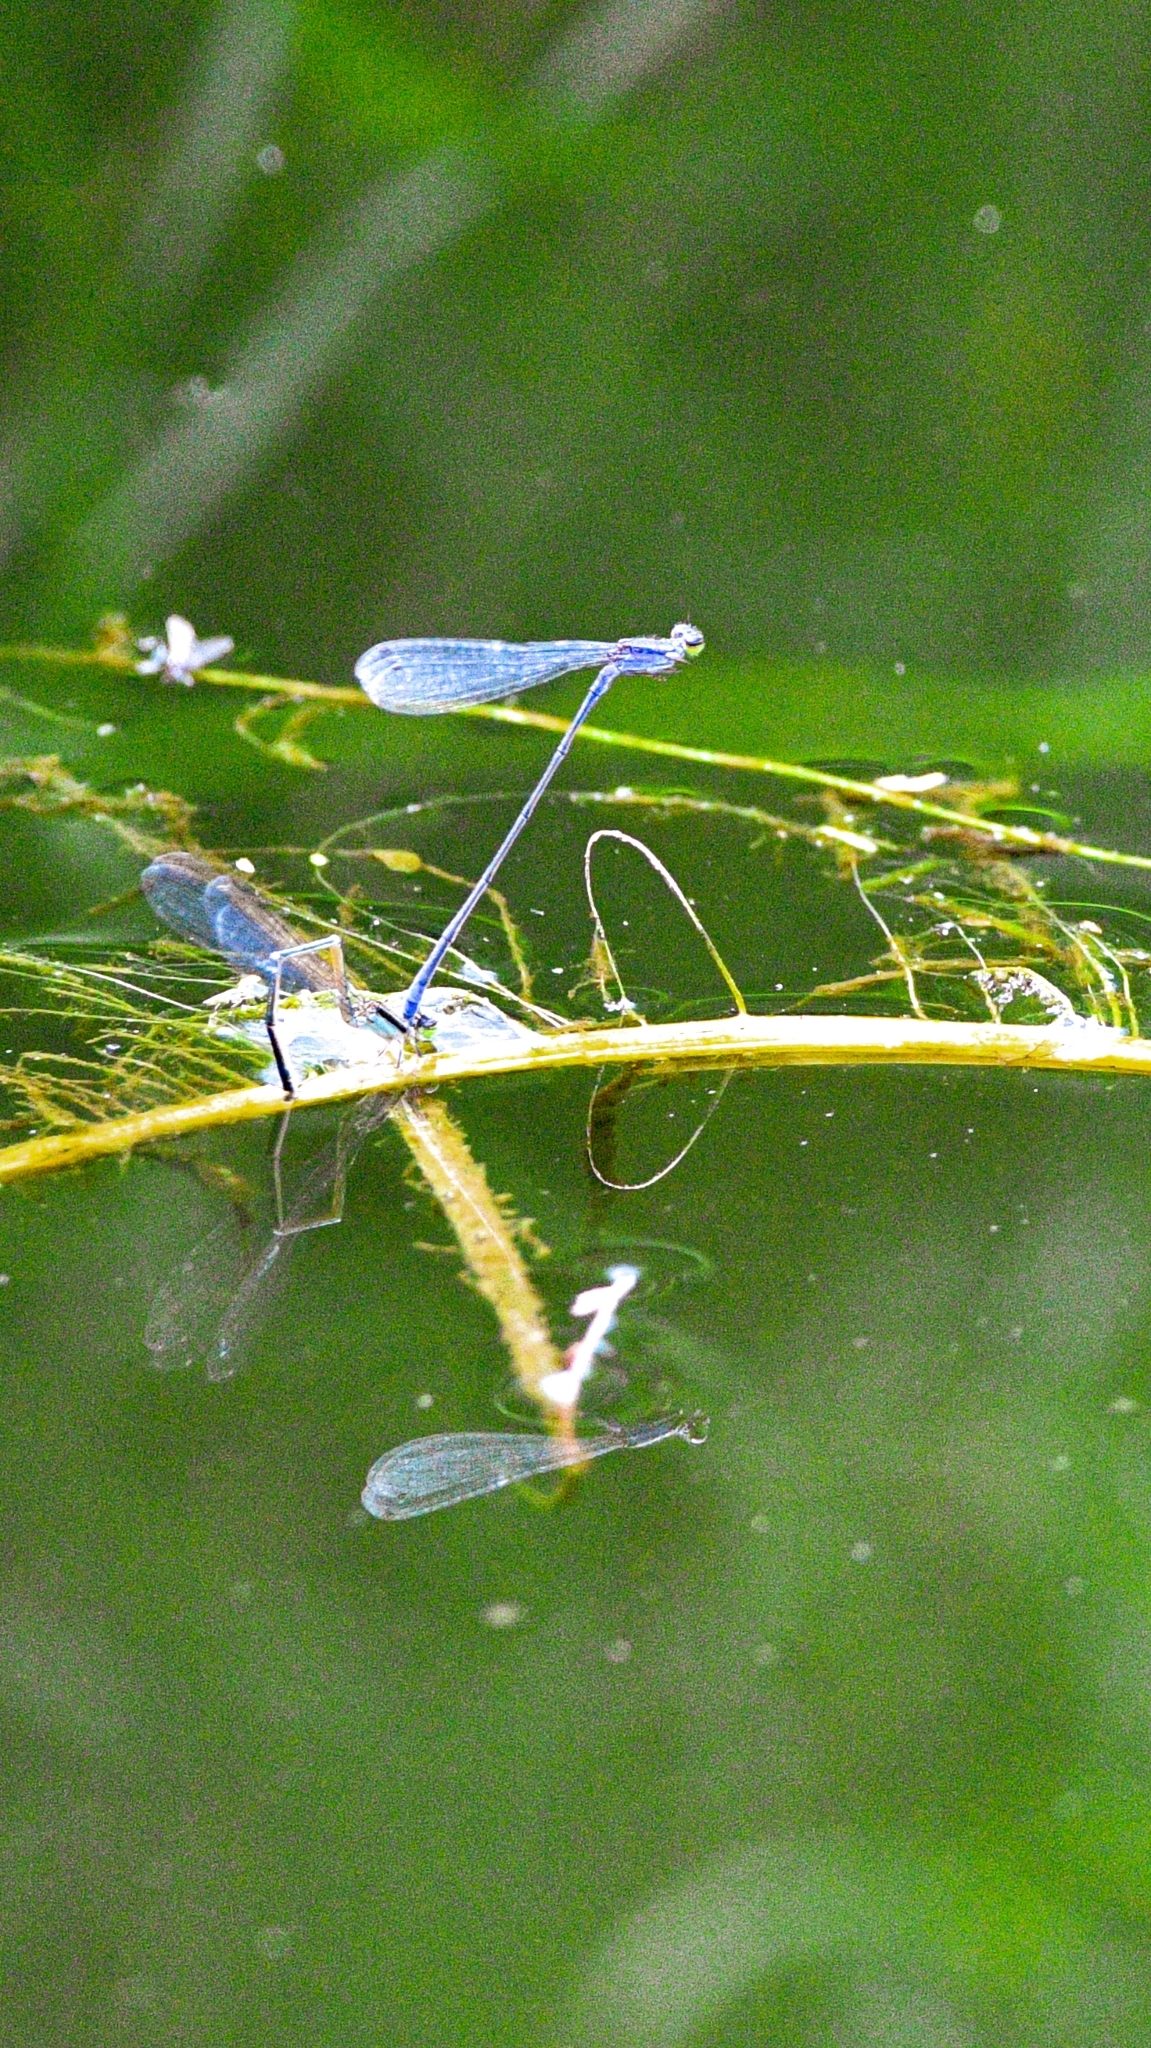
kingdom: Animalia
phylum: Arthropoda
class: Insecta
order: Odonata
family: Lestidae
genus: Indolestes
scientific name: Indolestes gracilis
